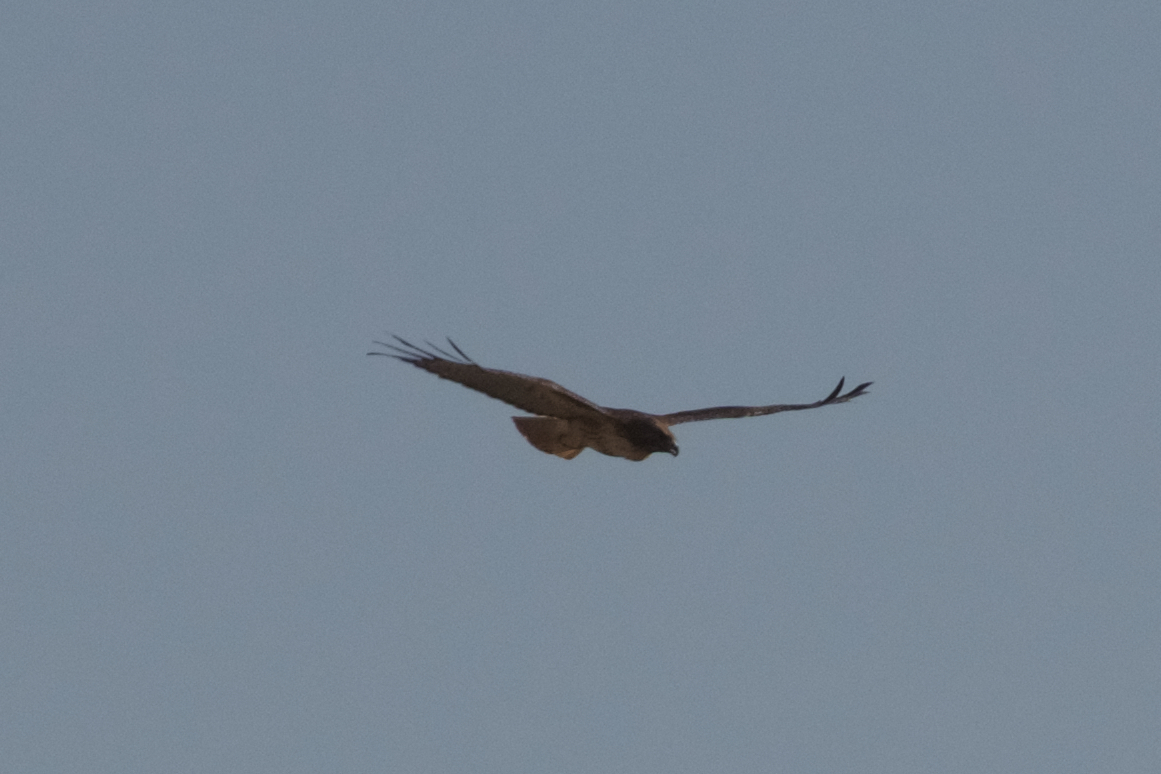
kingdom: Animalia
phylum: Chordata
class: Aves
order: Accipitriformes
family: Accipitridae
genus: Buteo
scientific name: Buteo jamaicensis
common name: Red-tailed hawk
